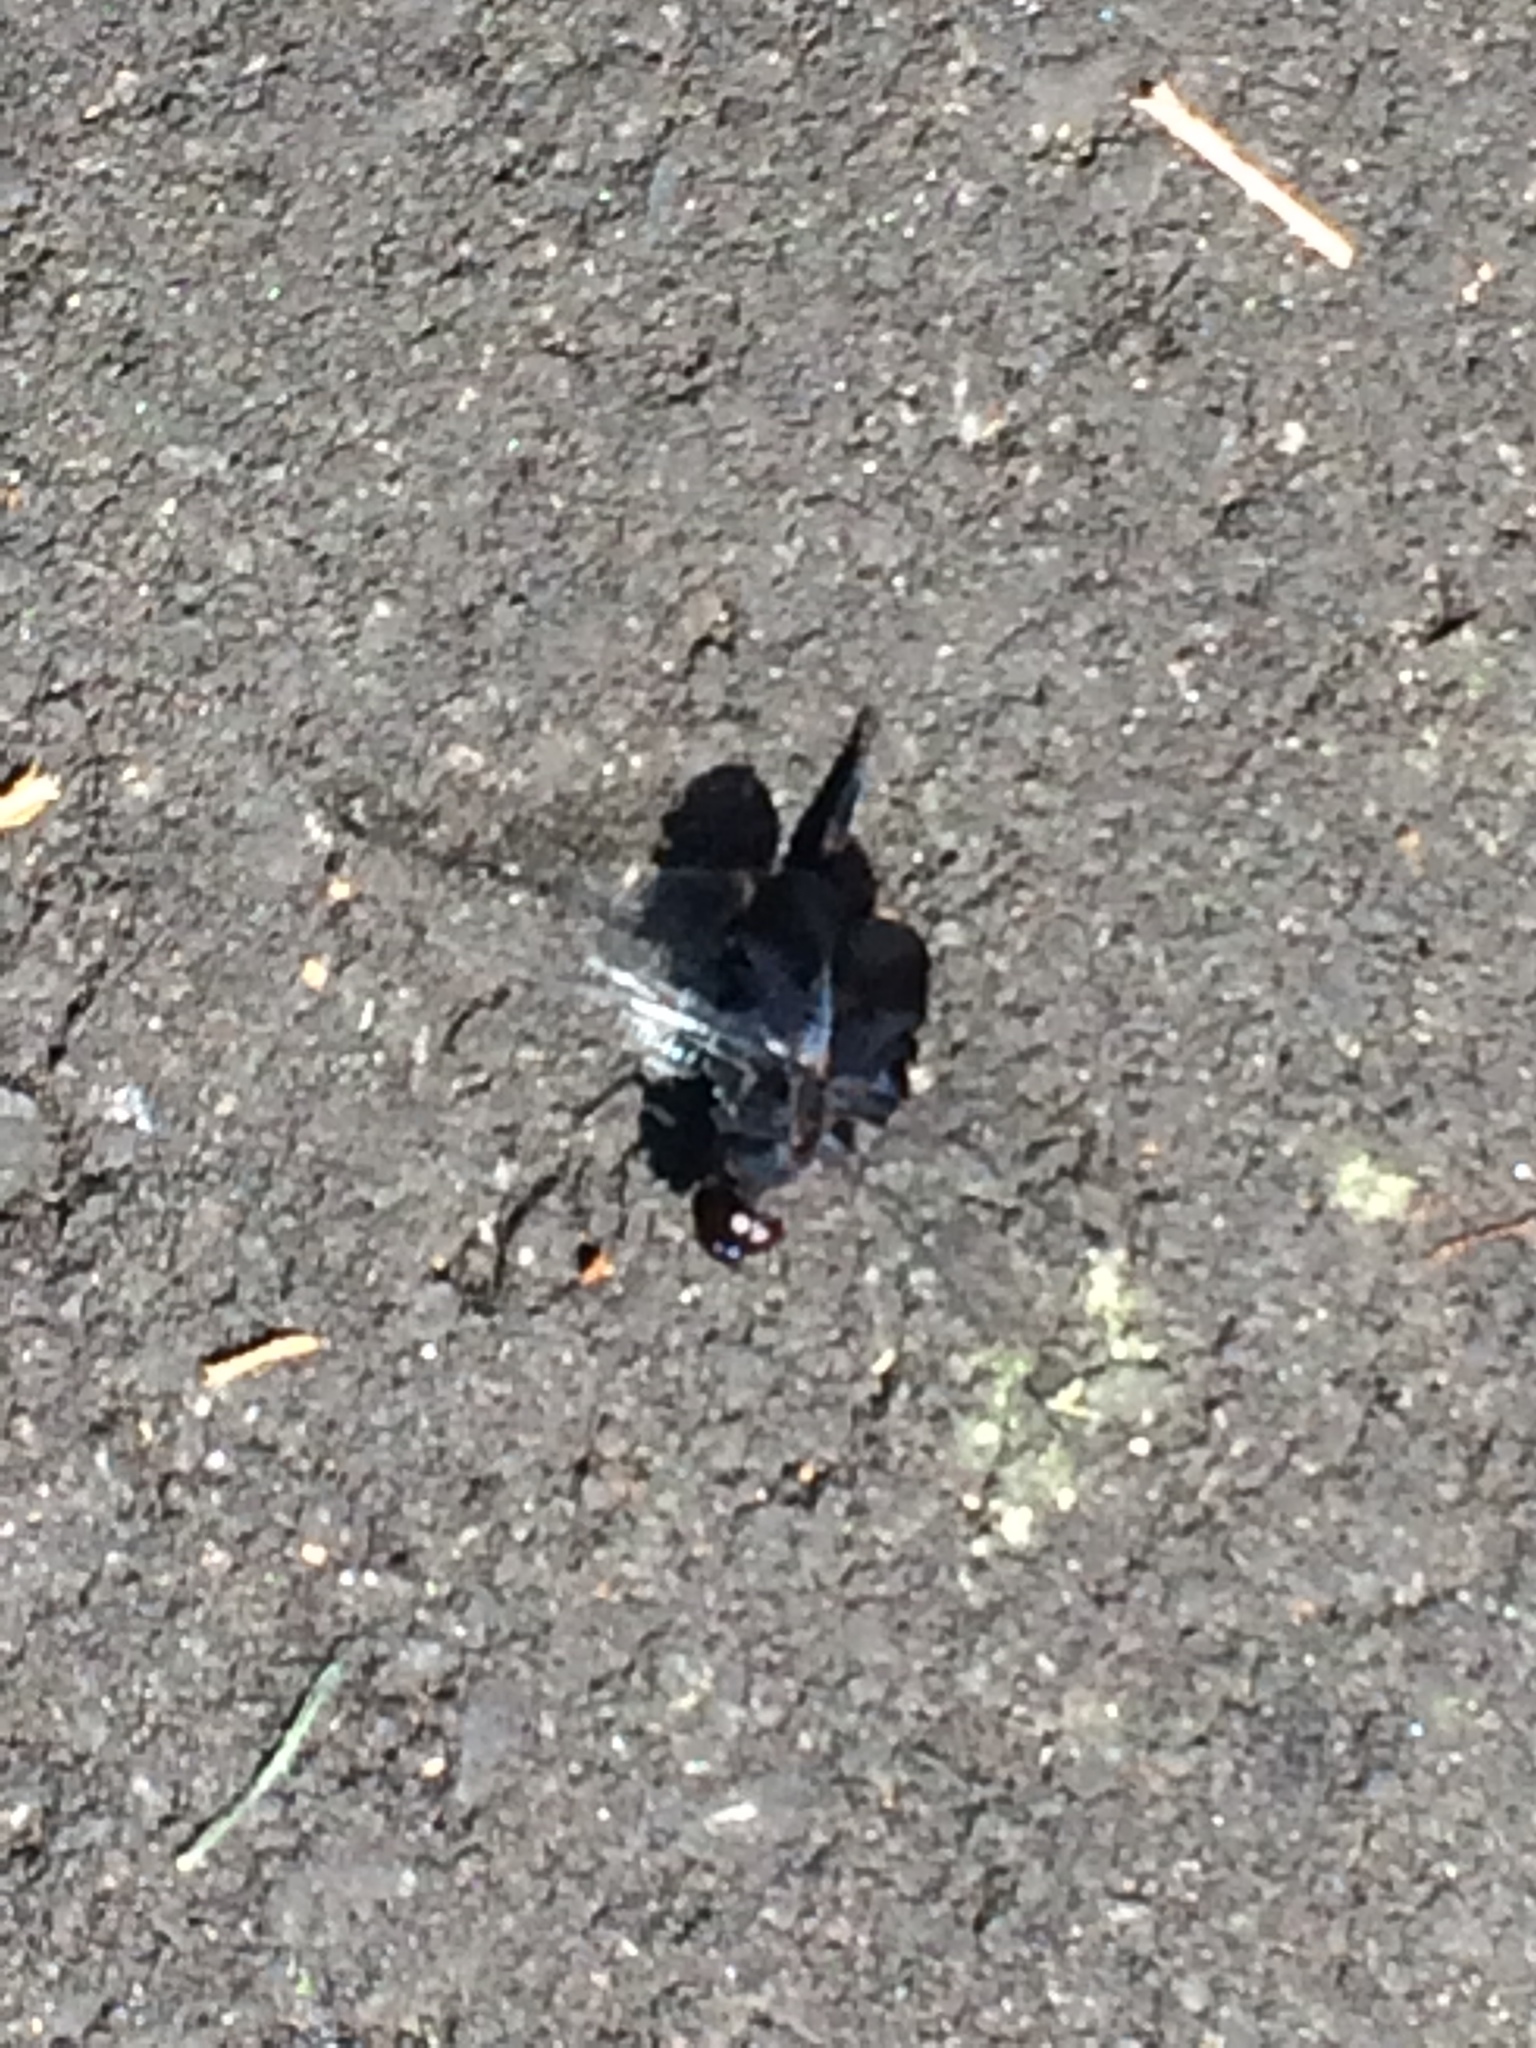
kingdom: Animalia
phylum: Arthropoda
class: Insecta
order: Odonata
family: Libellulidae
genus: Tramea
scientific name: Tramea lacerata
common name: Black saddlebags
